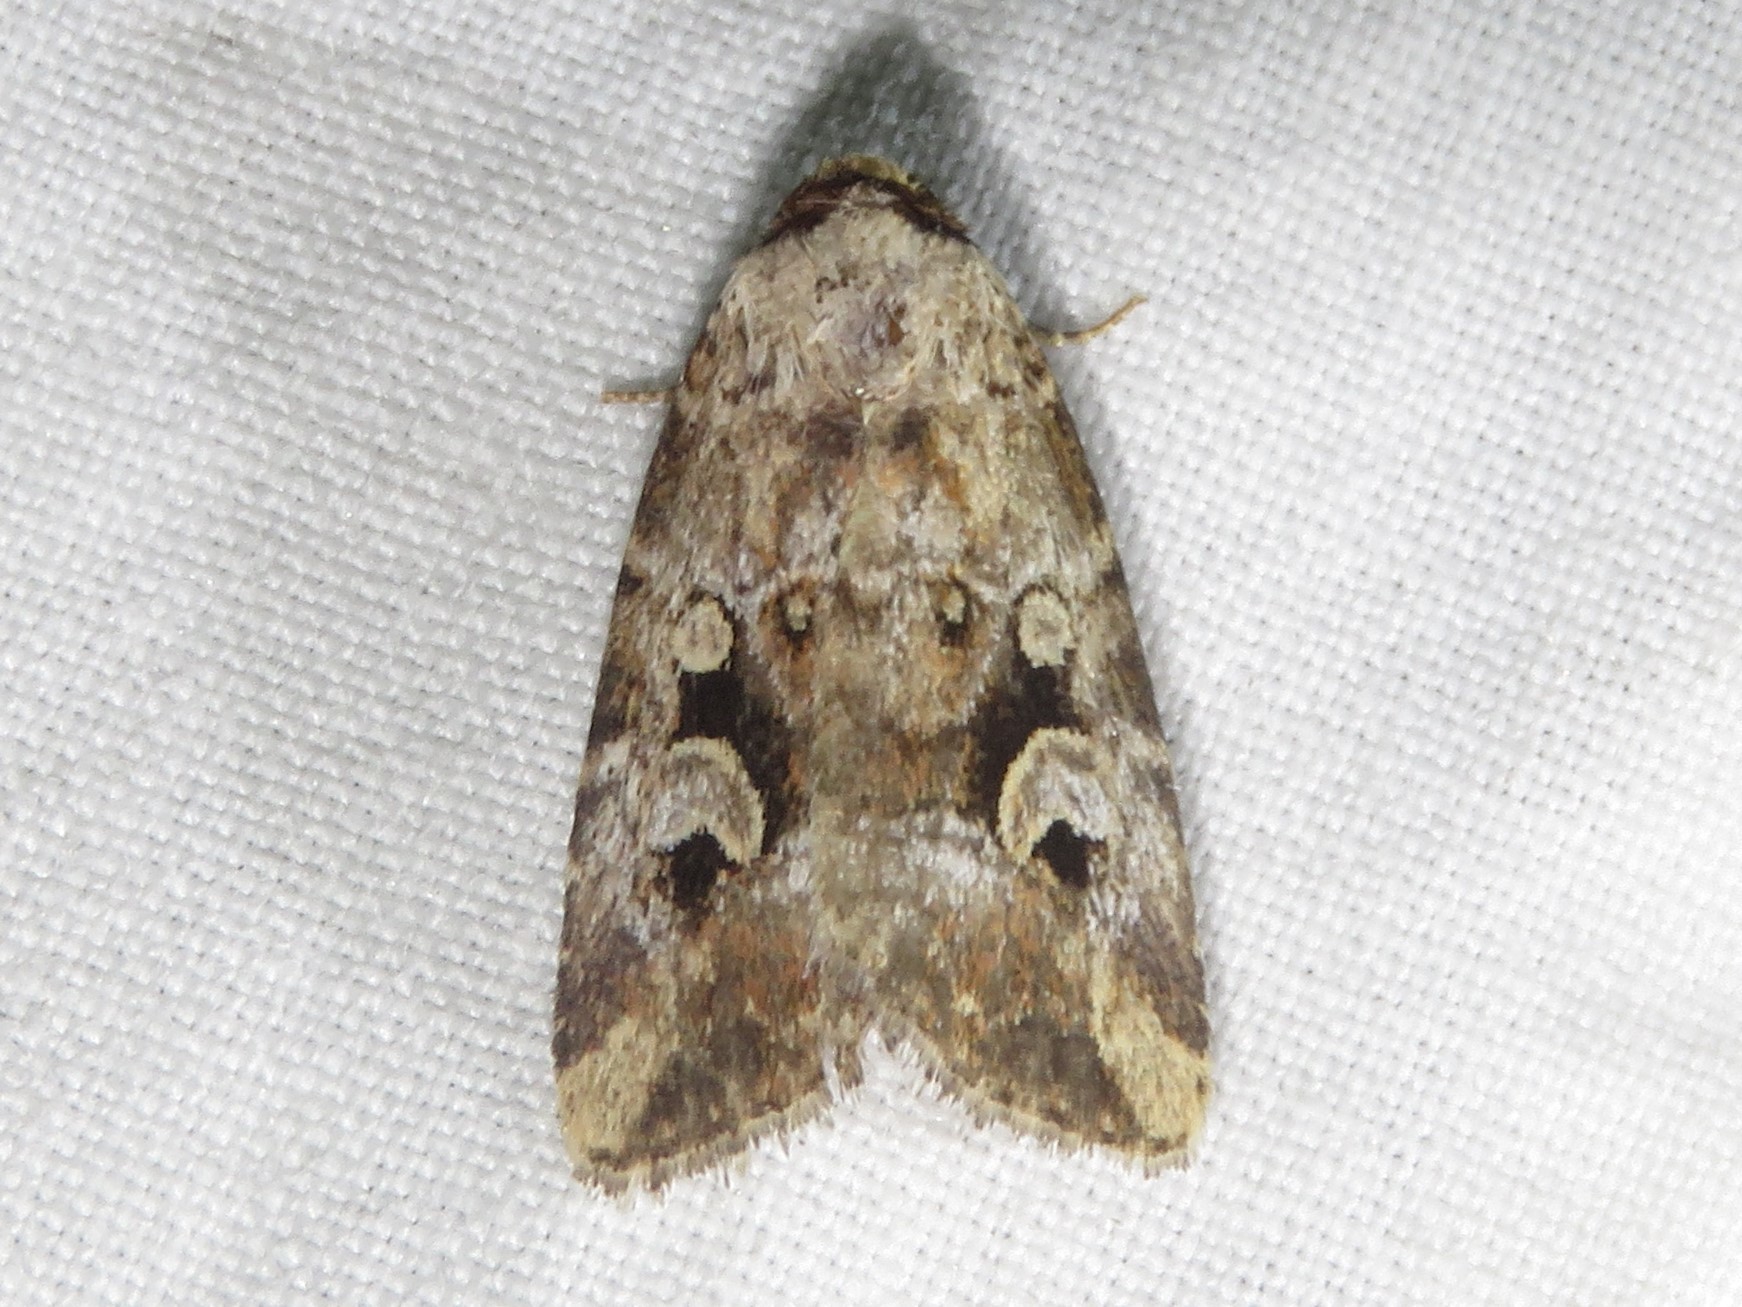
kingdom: Animalia
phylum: Arthropoda
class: Insecta
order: Lepidoptera
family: Noctuidae
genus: Elaphria
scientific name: Elaphria alapallida
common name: Pale-winged midget
